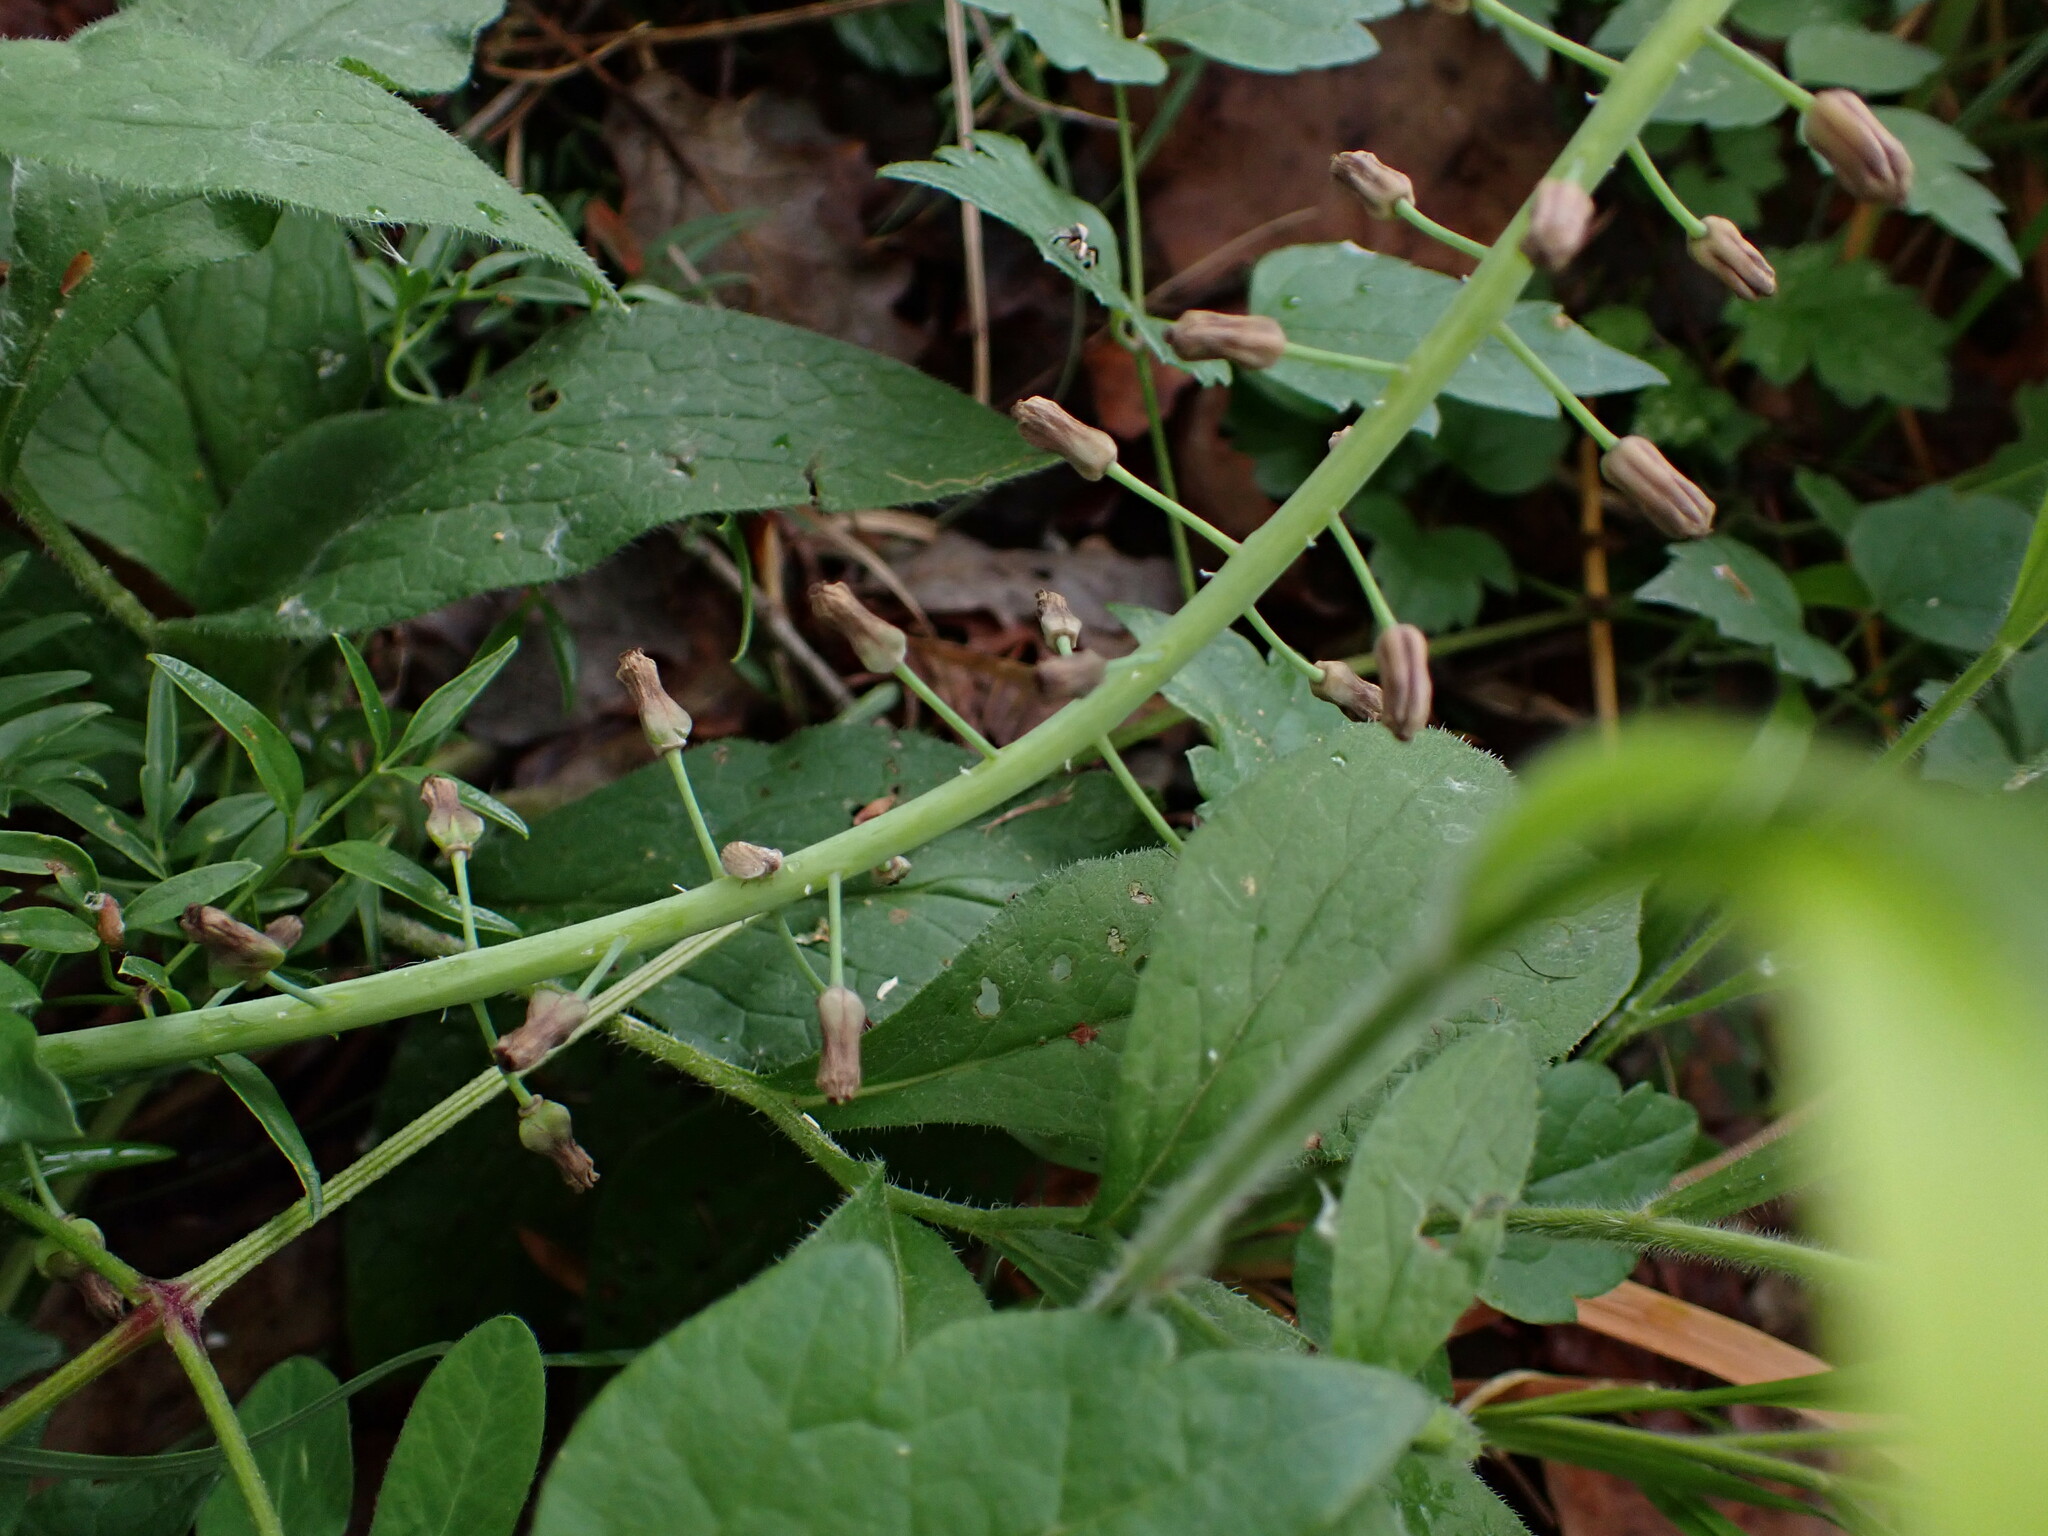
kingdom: Plantae
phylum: Tracheophyta
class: Liliopsida
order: Asparagales
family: Asparagaceae
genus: Muscari
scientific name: Muscari comosum
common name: Tassel hyacinth
